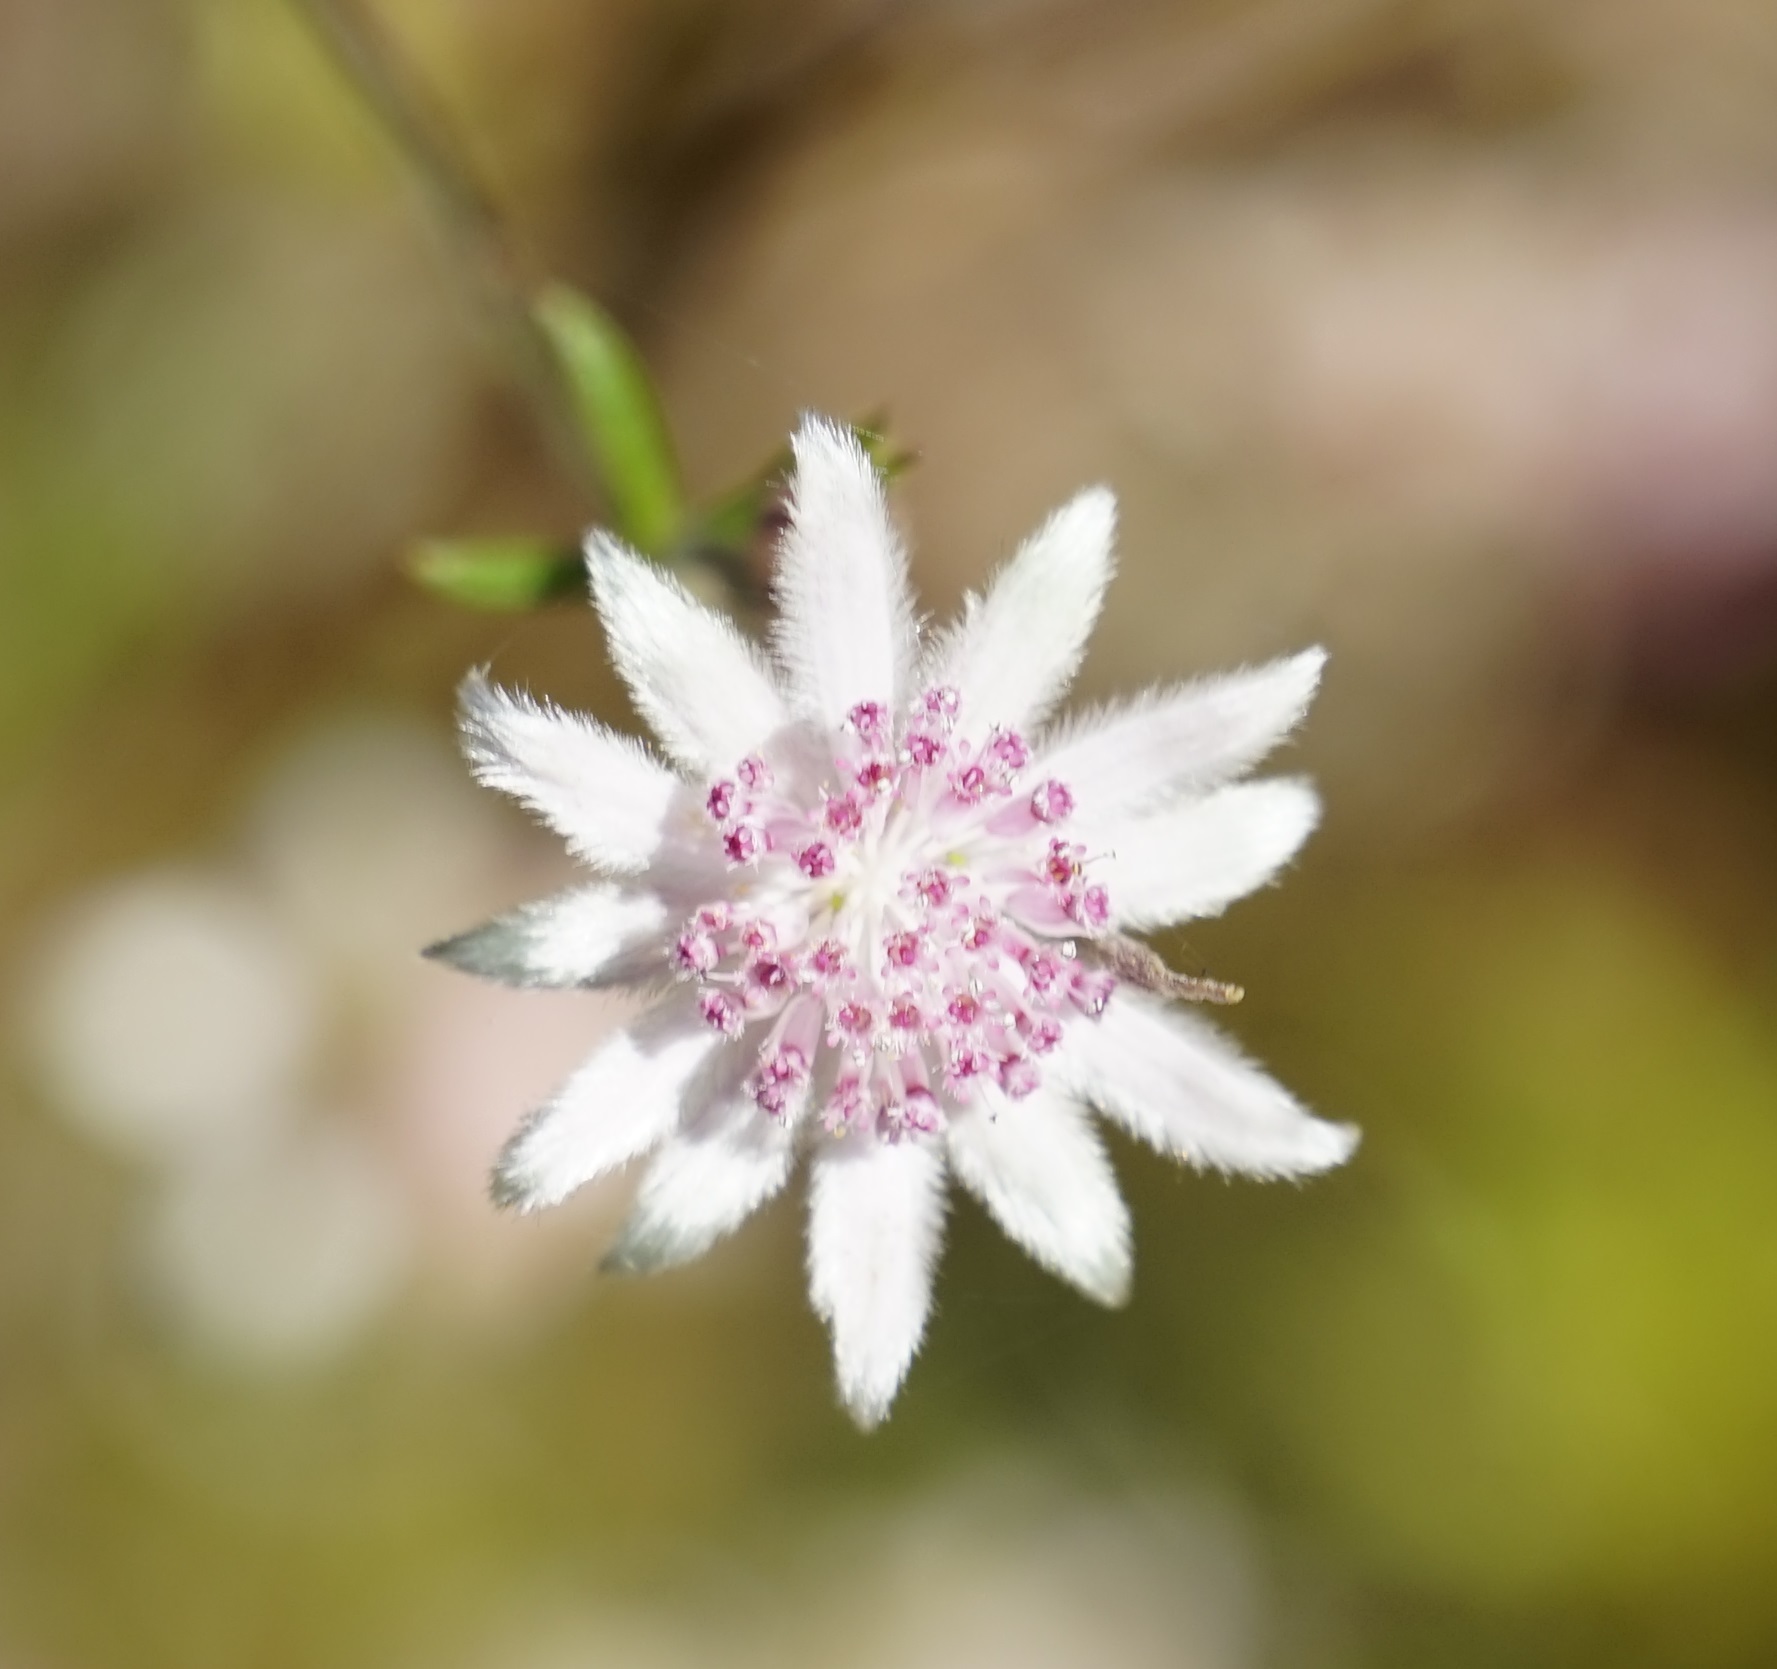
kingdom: Plantae
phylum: Tracheophyta
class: Magnoliopsida
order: Apiales
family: Apiaceae
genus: Actinotus
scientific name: Actinotus forsythii
